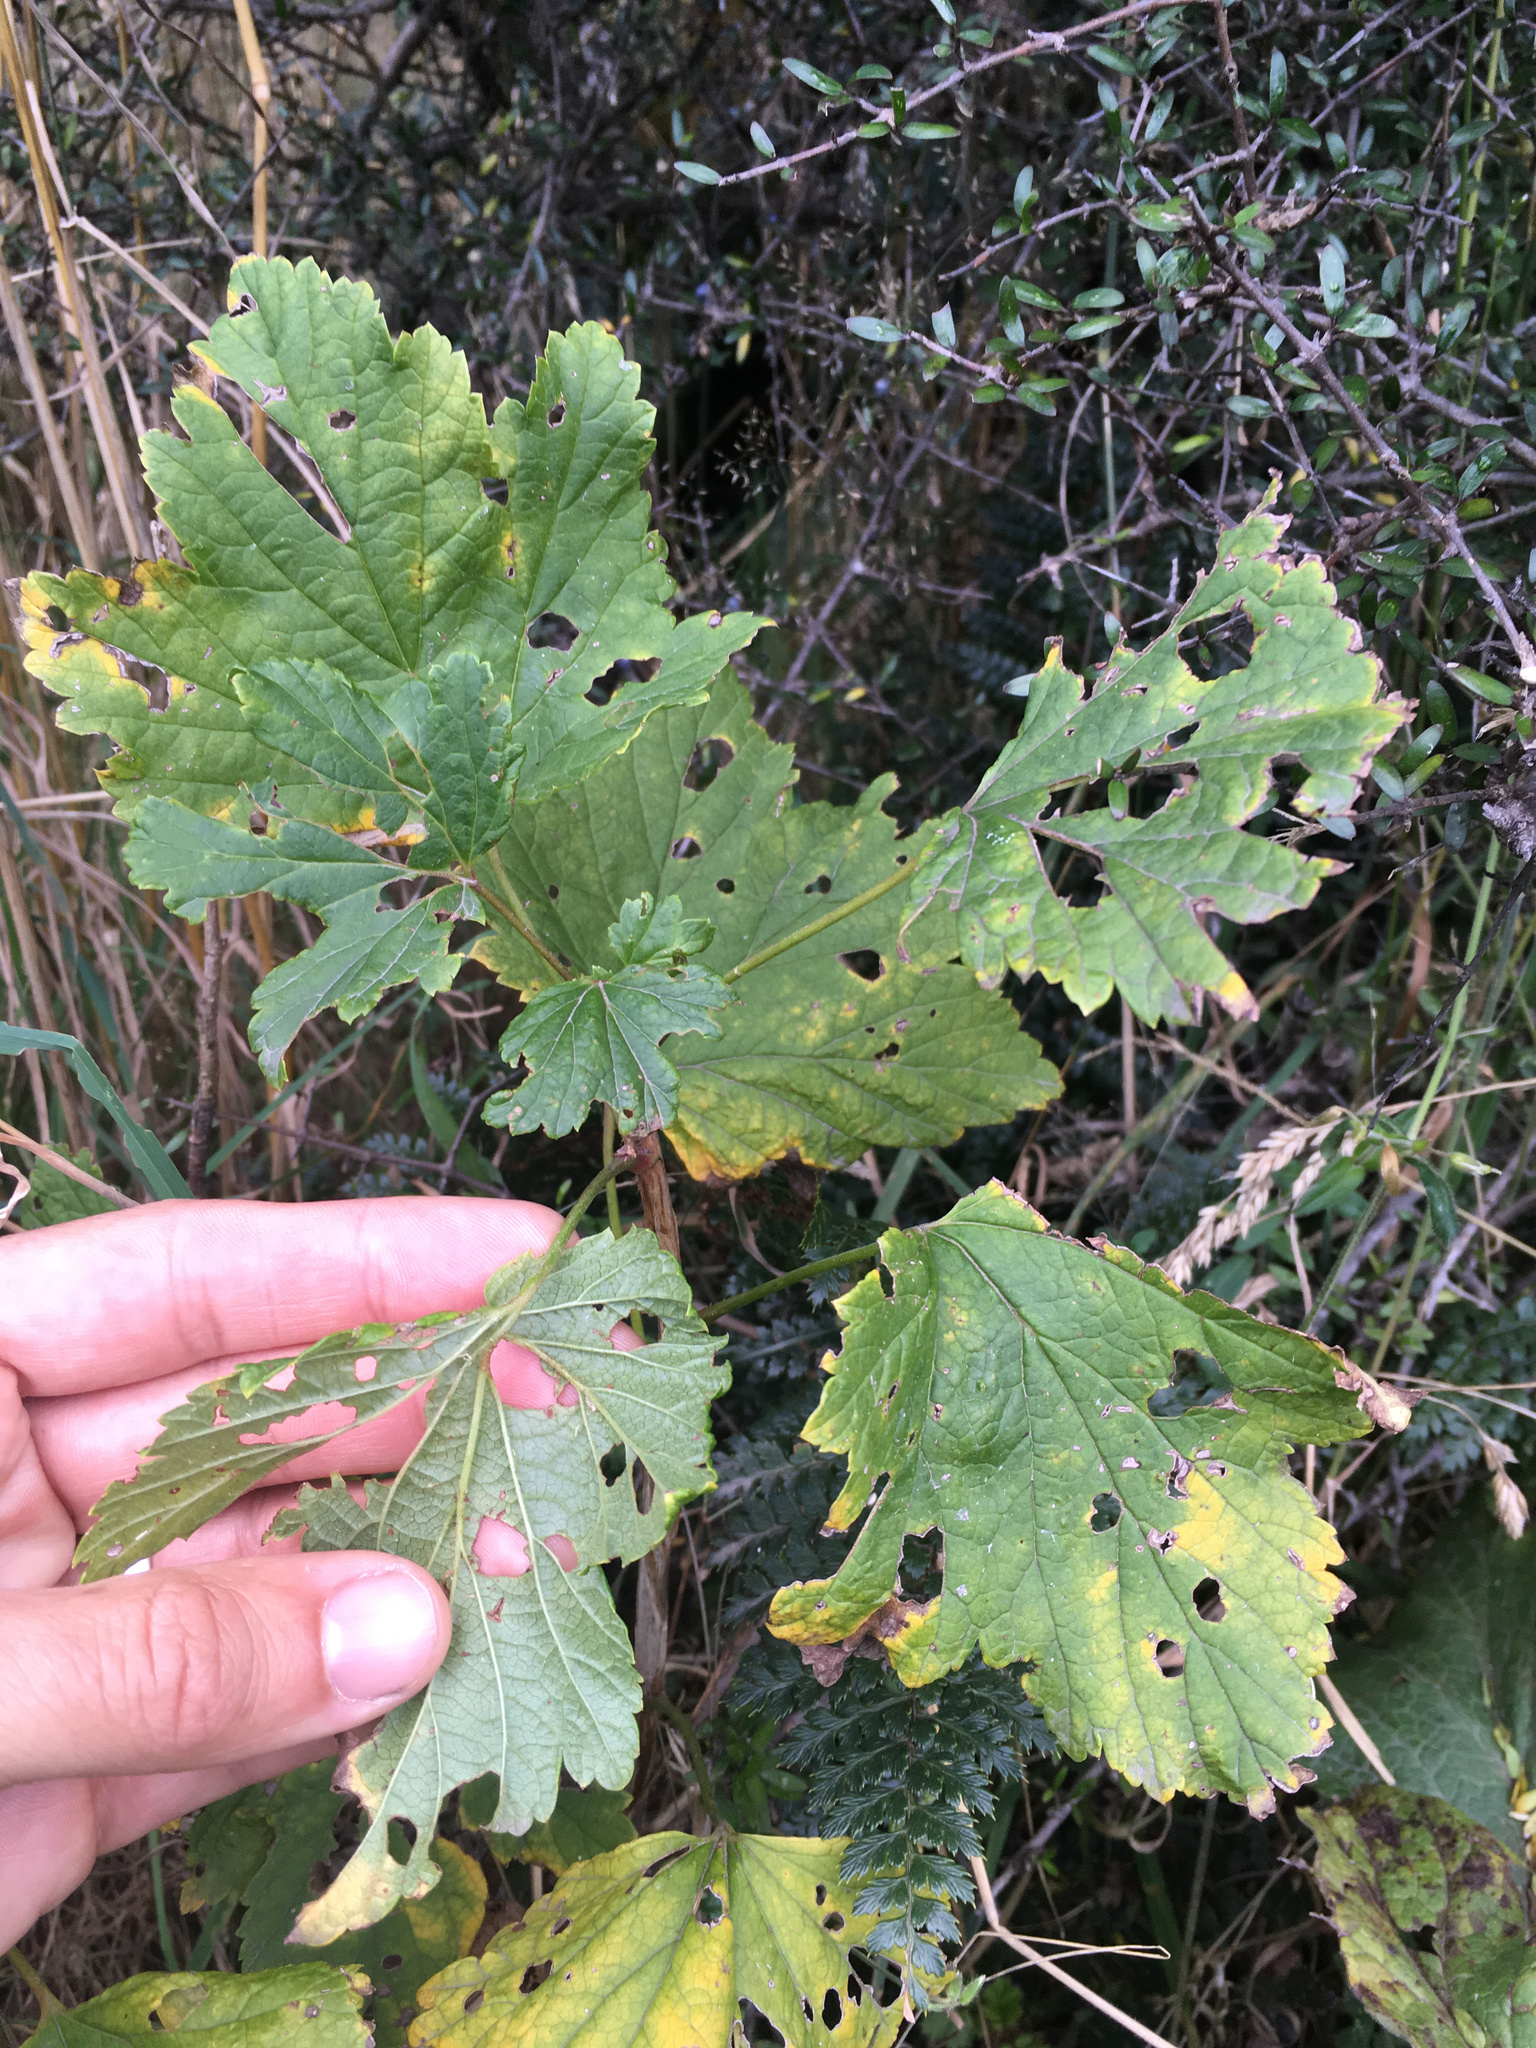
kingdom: Plantae
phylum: Tracheophyta
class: Magnoliopsida
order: Saxifragales
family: Grossulariaceae
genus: Ribes
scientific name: Ribes rubrum
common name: Red currant
